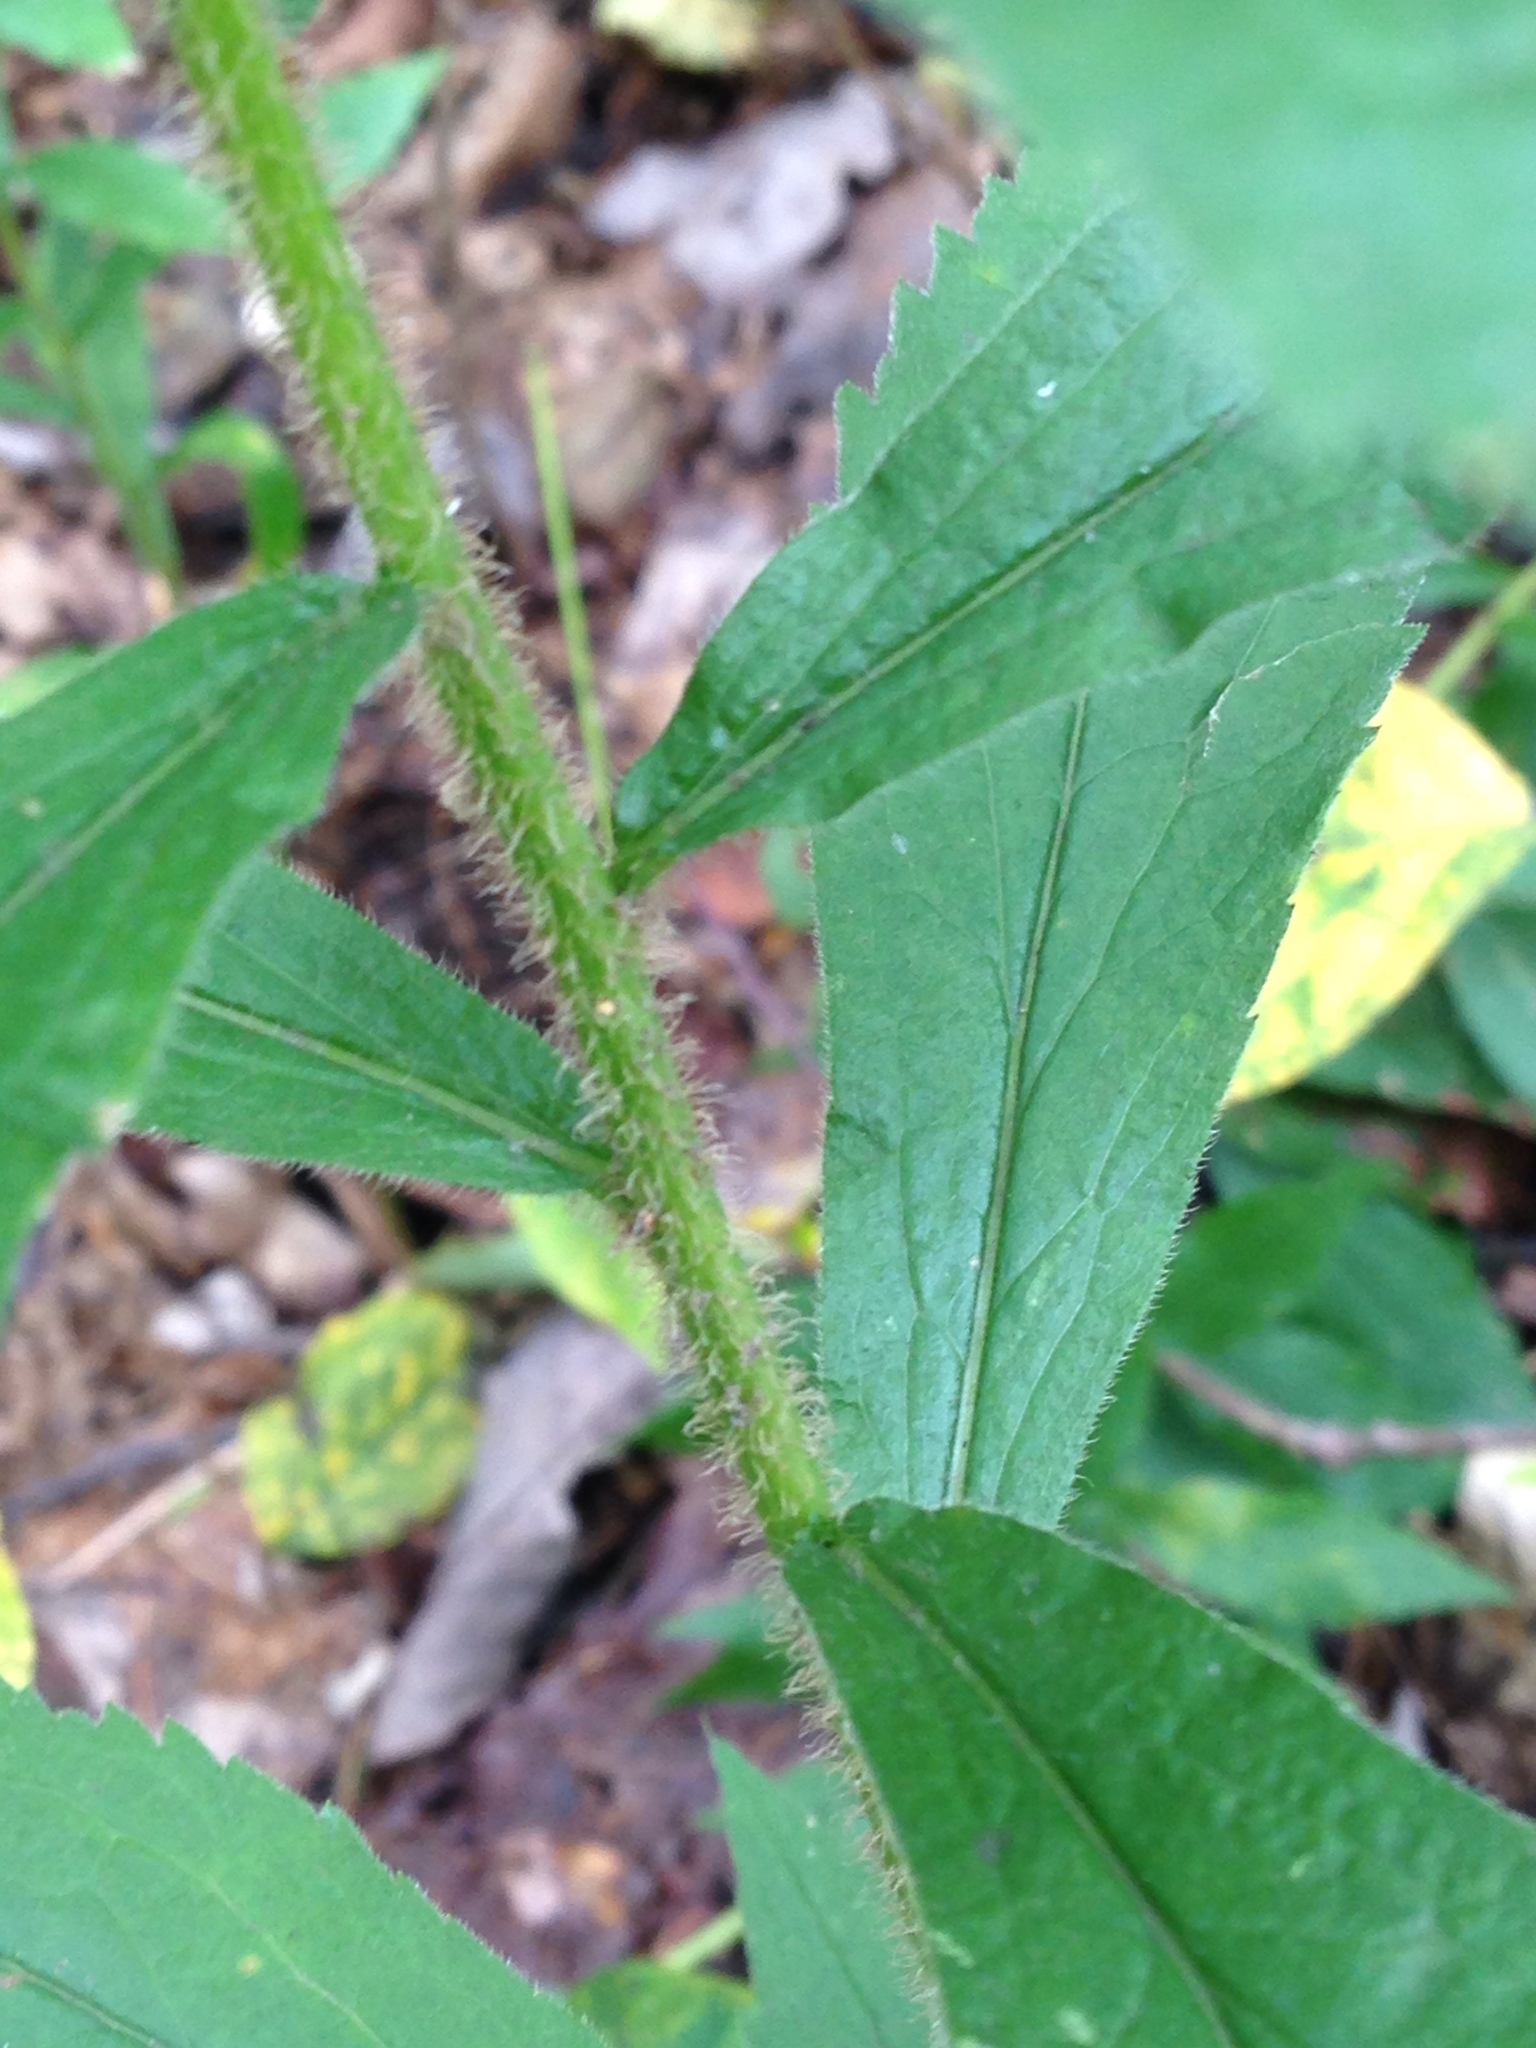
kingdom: Plantae
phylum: Tracheophyta
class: Magnoliopsida
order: Asterales
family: Asteraceae
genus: Solidago
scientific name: Solidago rugosa
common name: Rough-stemmed goldenrod
